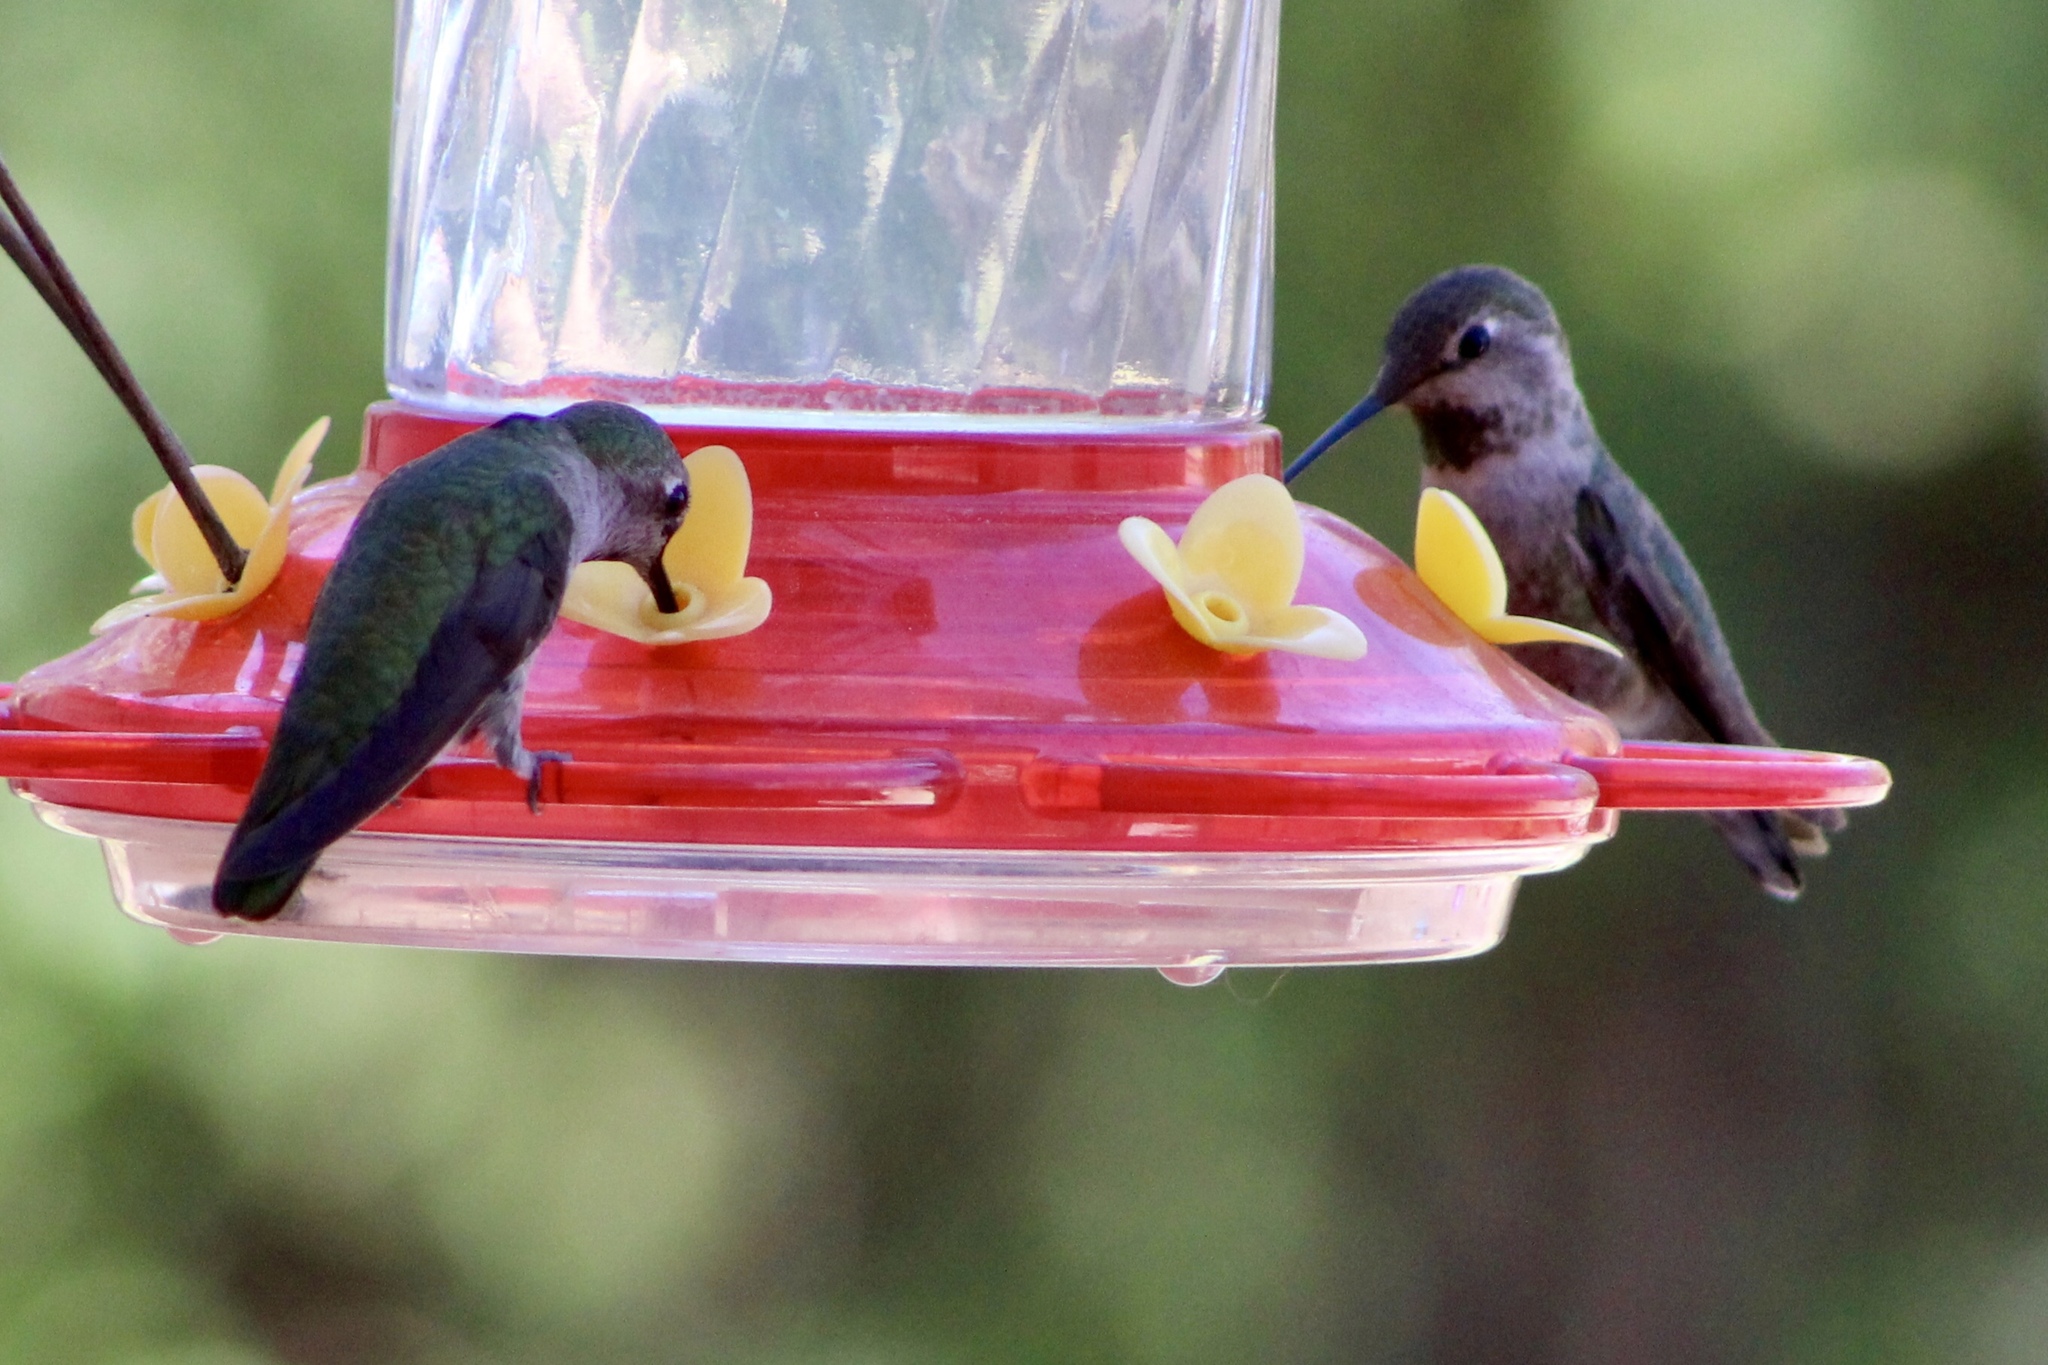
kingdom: Animalia
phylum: Chordata
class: Aves
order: Apodiformes
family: Trochilidae
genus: Calypte
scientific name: Calypte anna
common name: Anna's hummingbird
